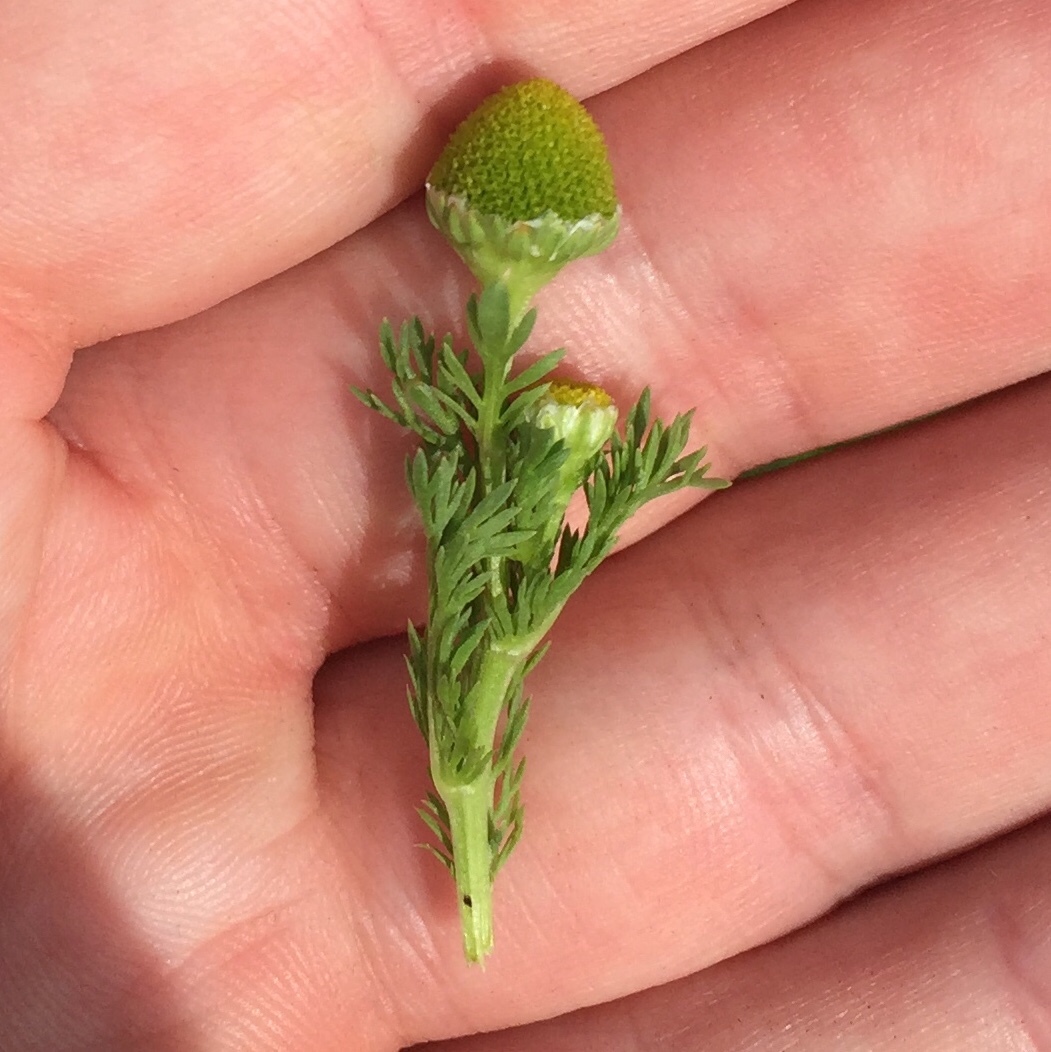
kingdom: Plantae
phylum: Tracheophyta
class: Magnoliopsida
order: Asterales
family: Asteraceae
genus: Matricaria
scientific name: Matricaria discoidea
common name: Disc mayweed
